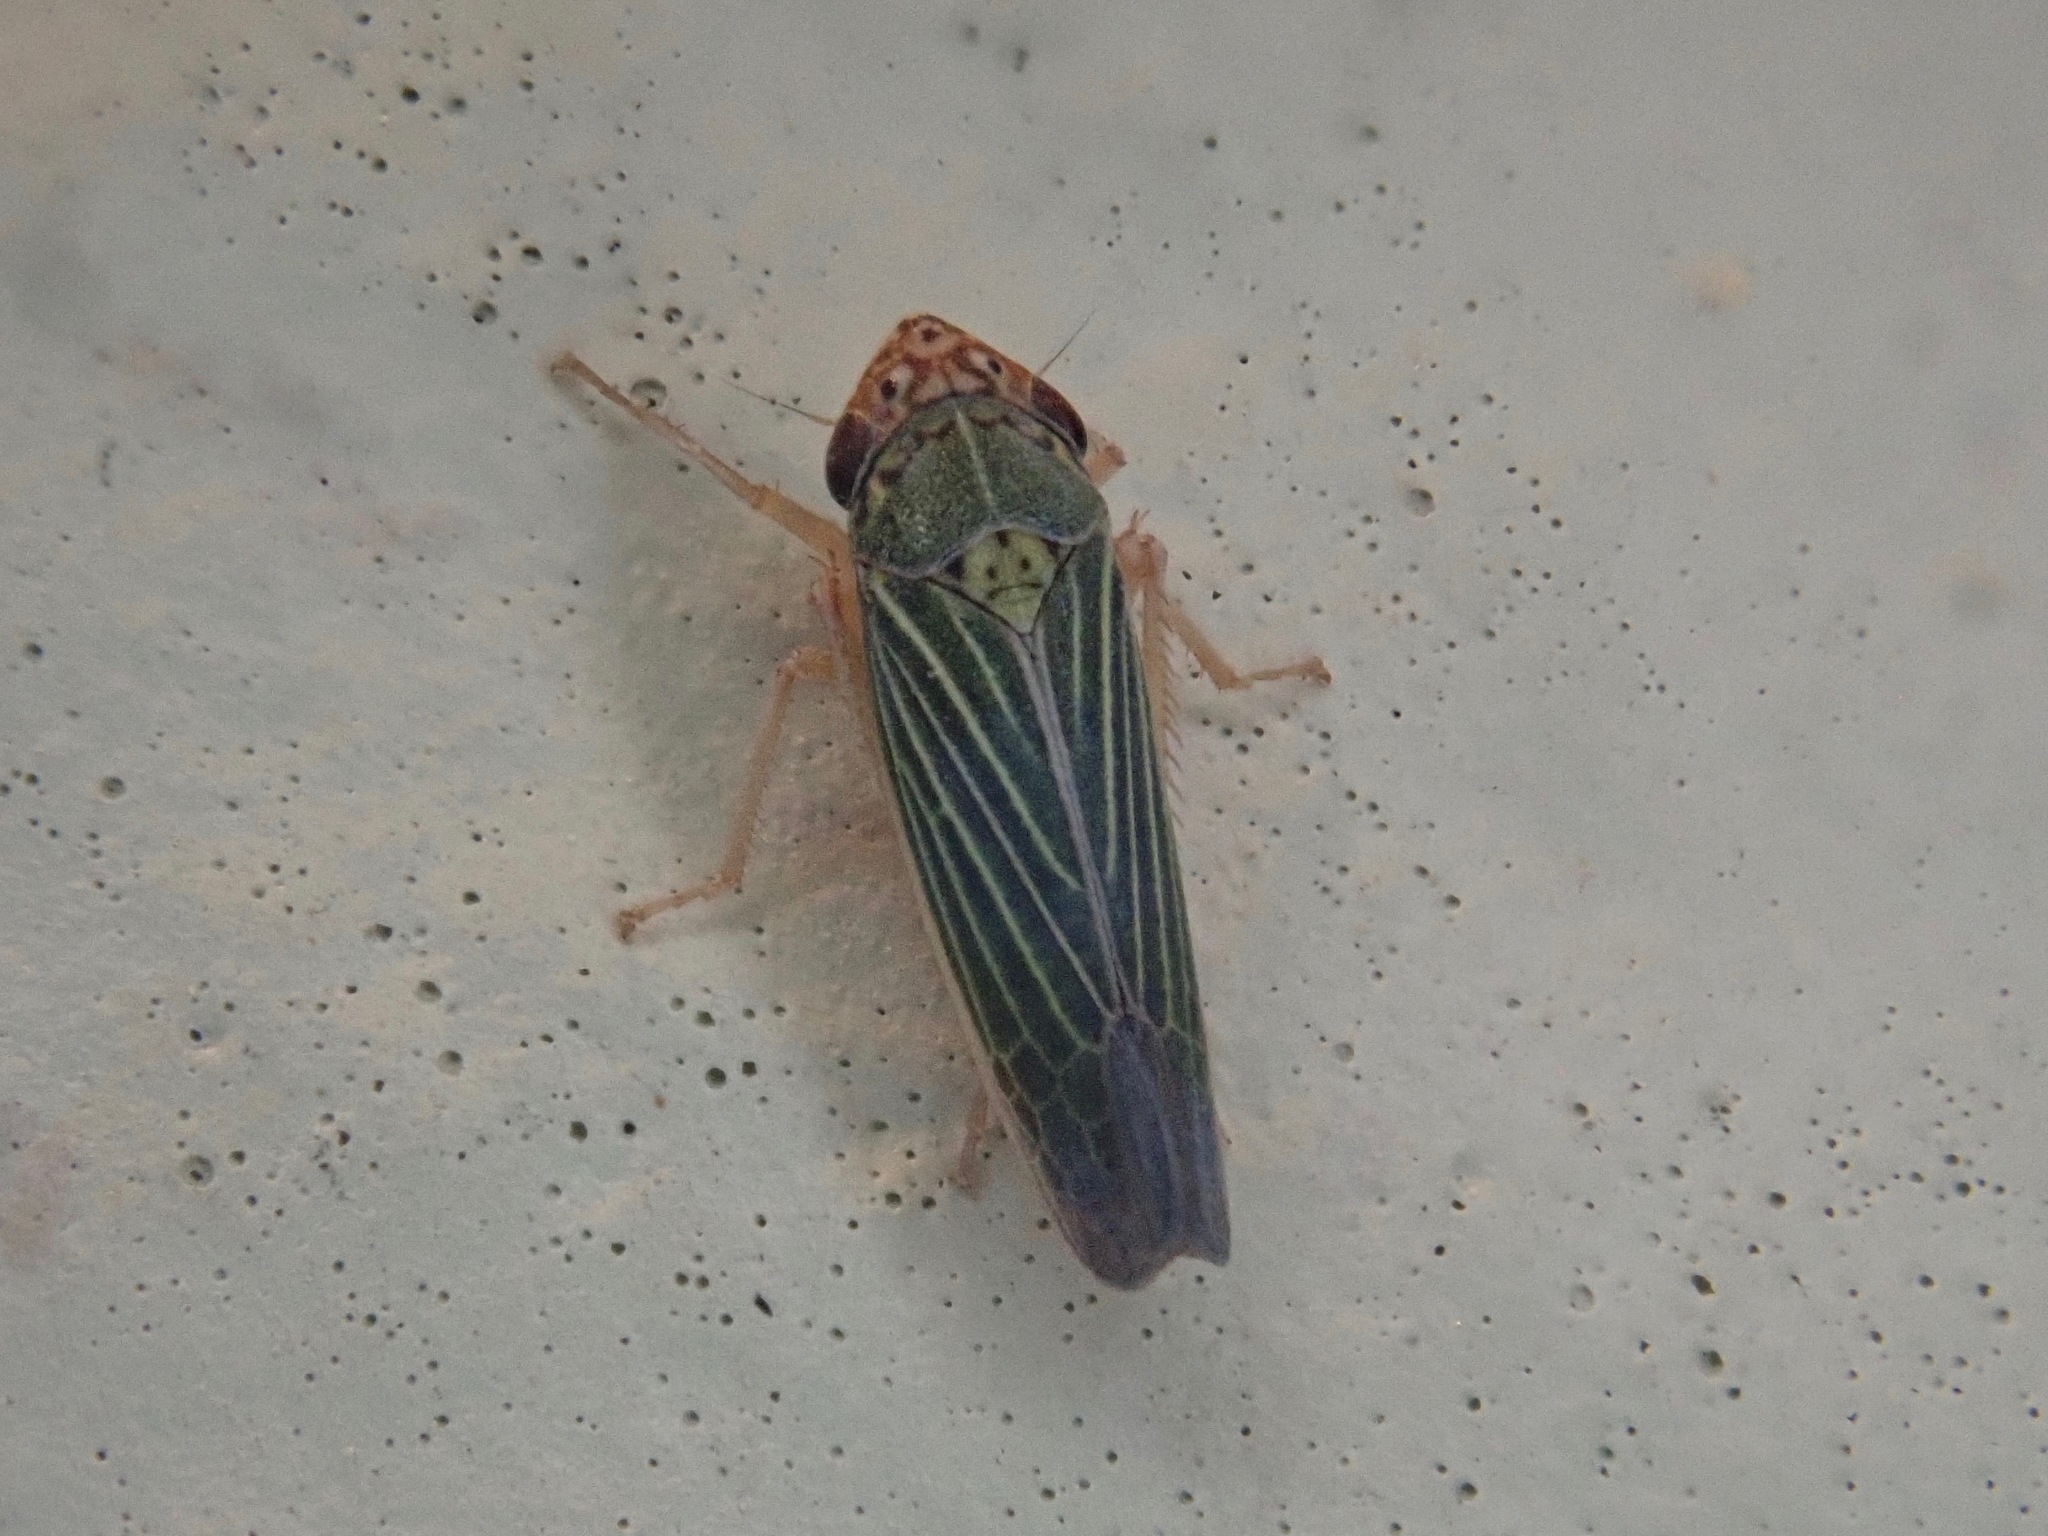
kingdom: Animalia
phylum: Arthropoda
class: Insecta
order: Hemiptera
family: Cicadellidae
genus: Xyphon
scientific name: Xyphon reticulatum
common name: Planthopper
